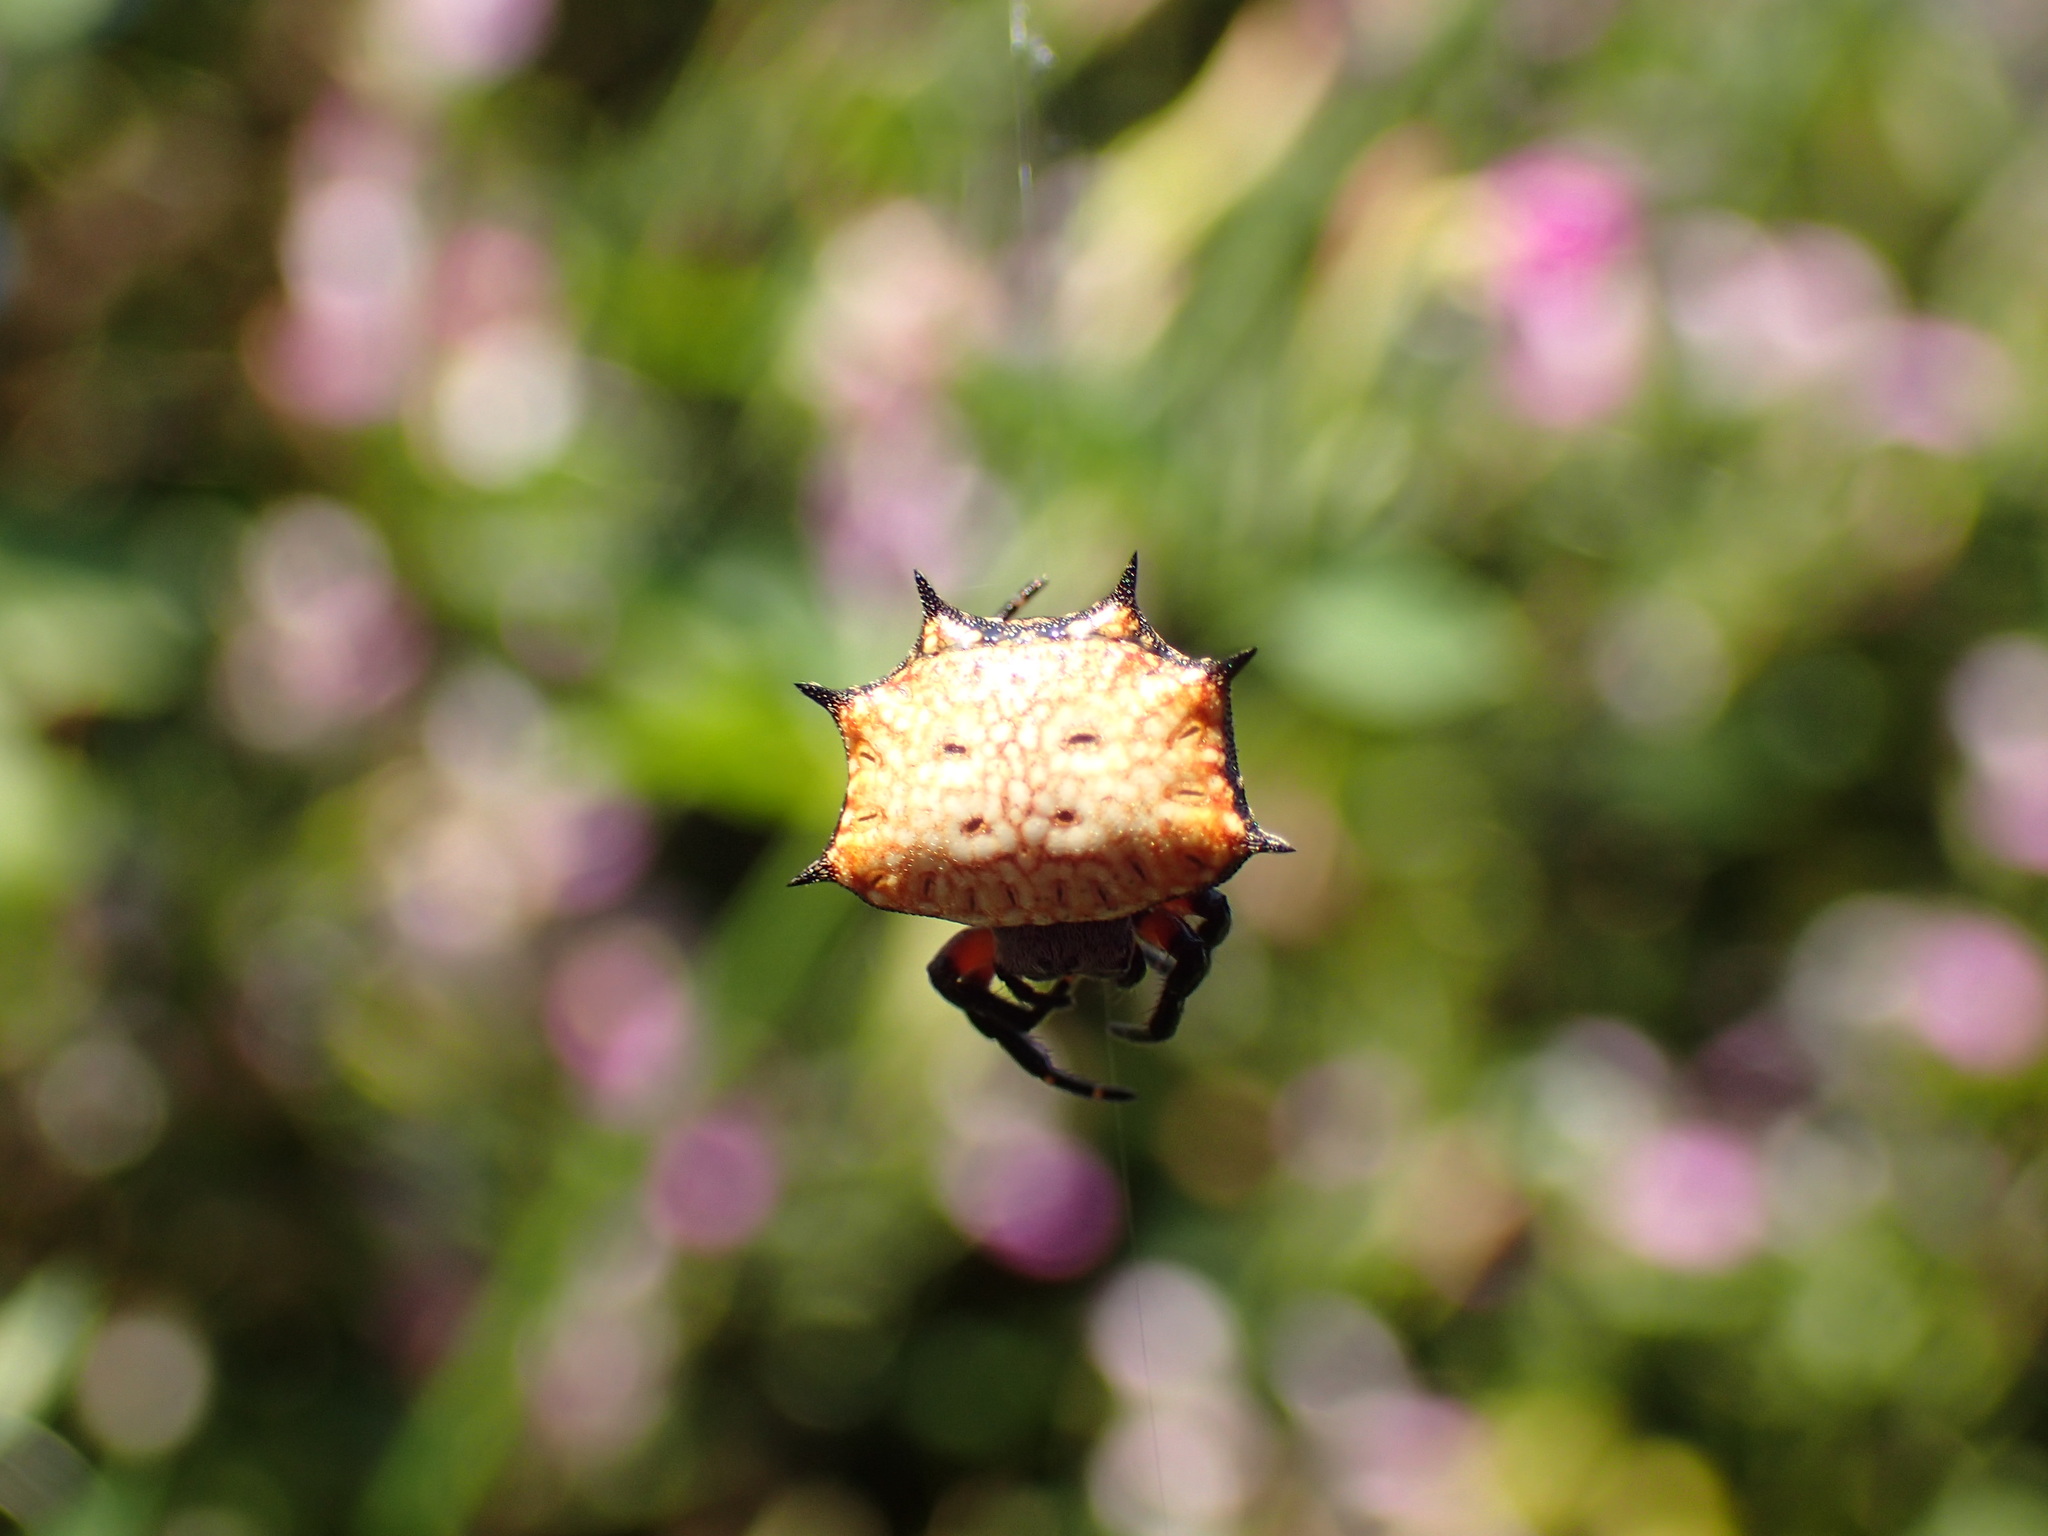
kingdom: Animalia
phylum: Arthropoda
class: Arachnida
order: Araneae
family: Araneidae
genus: Isoxya
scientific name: Isoxya tabulata
